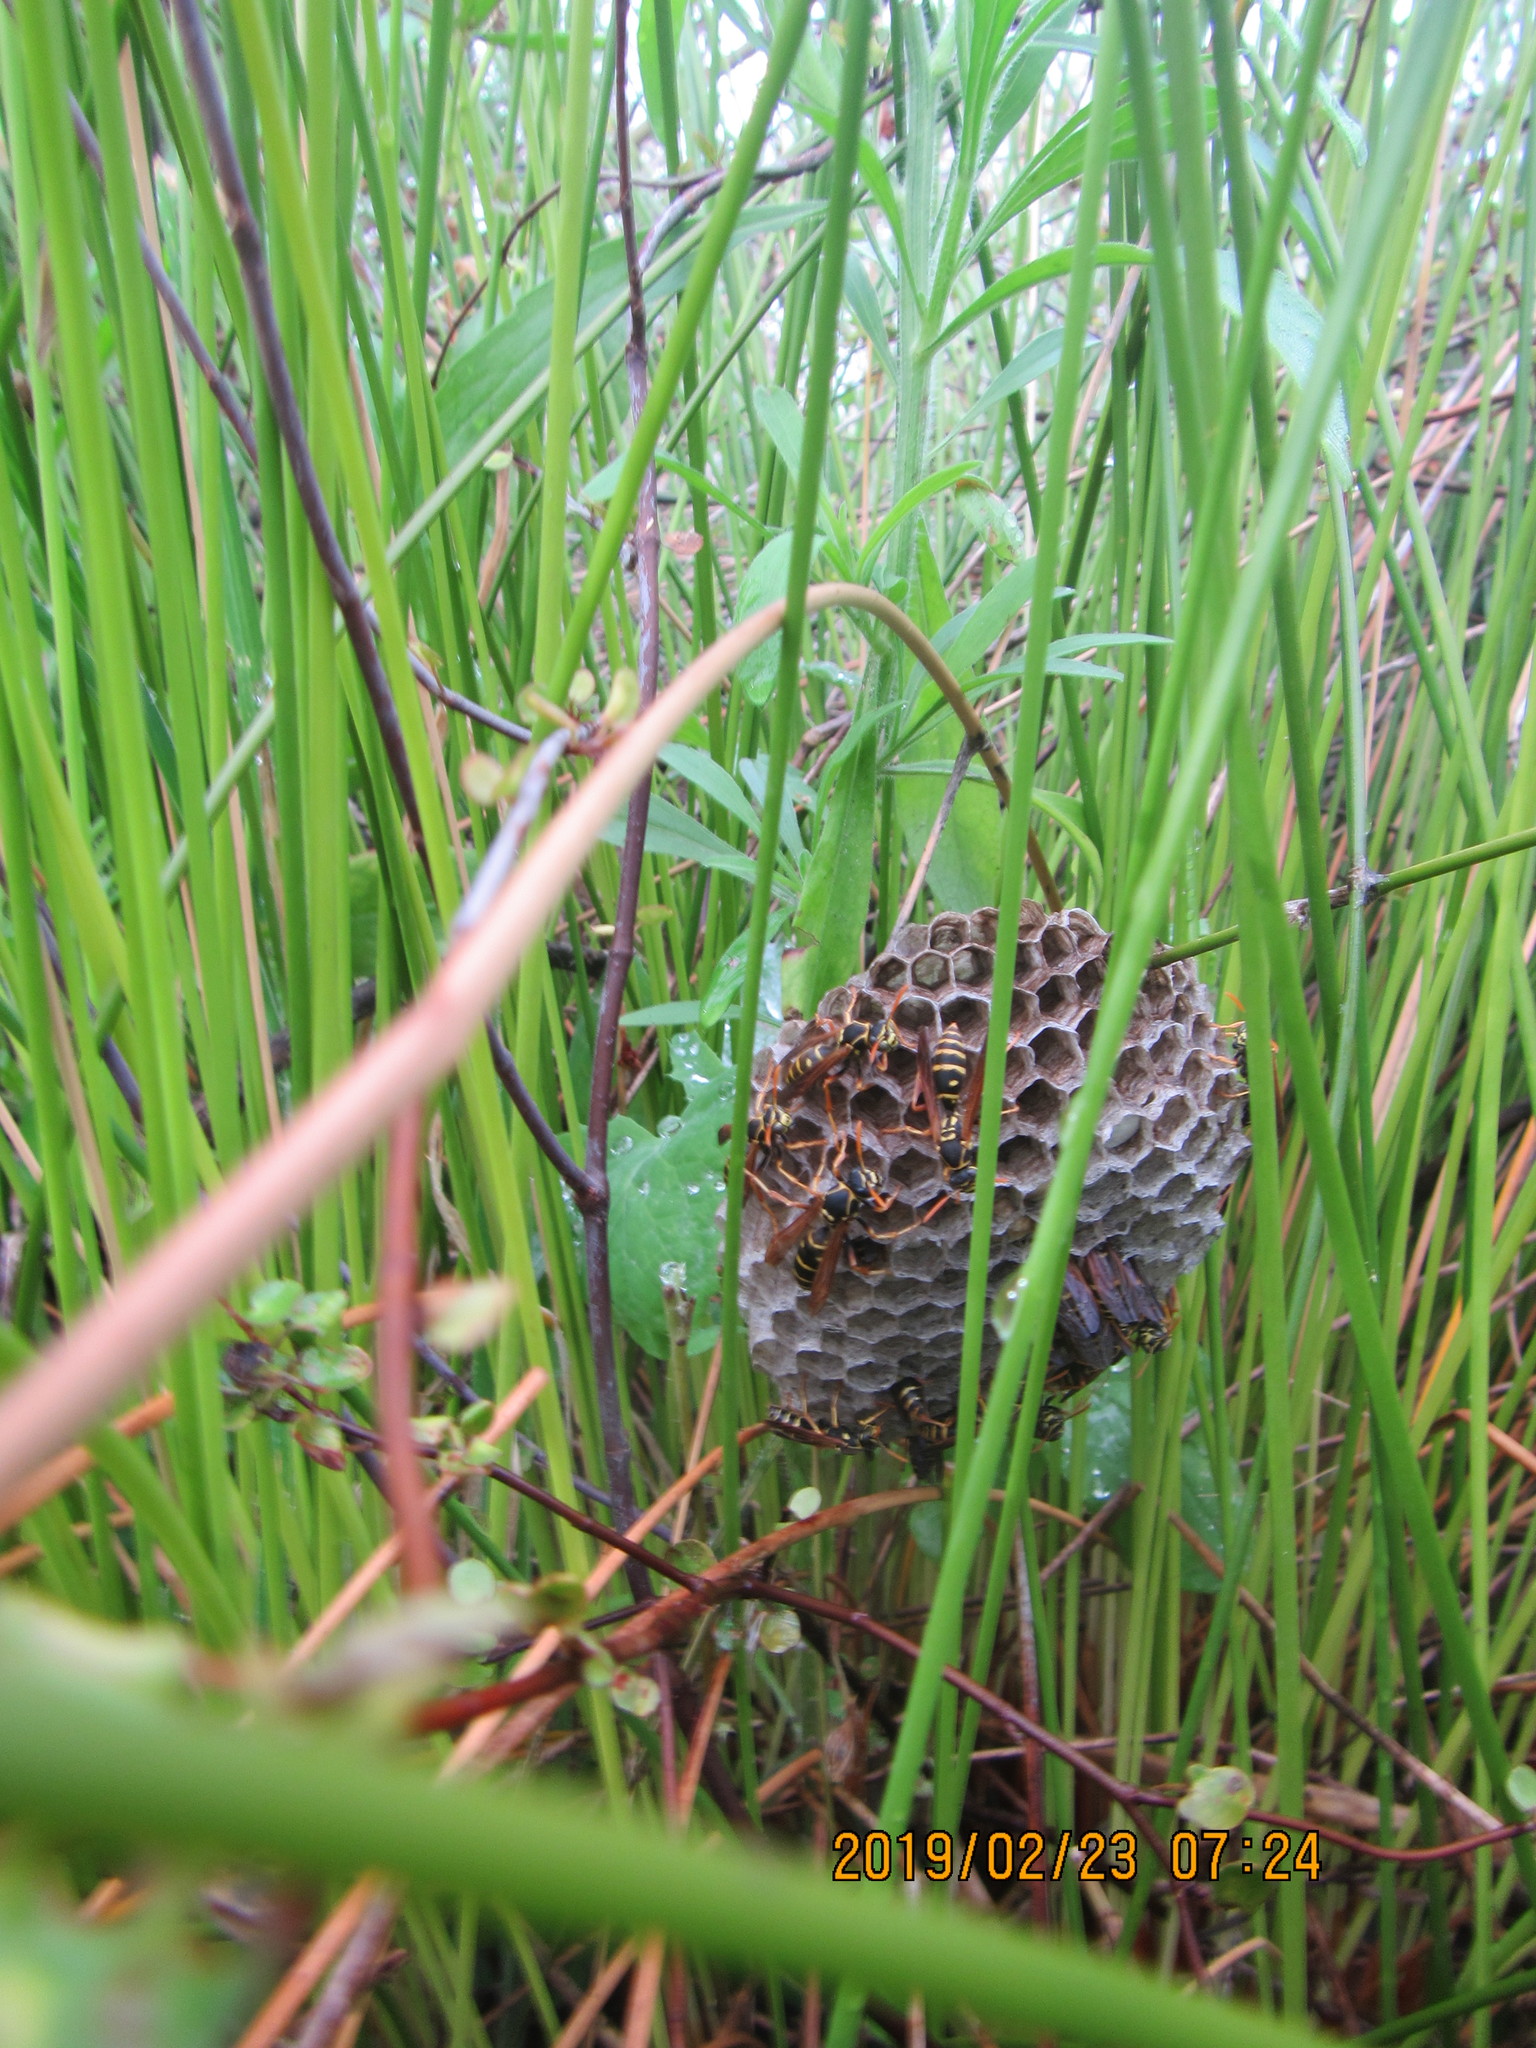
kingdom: Animalia
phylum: Arthropoda
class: Insecta
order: Hymenoptera
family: Eumenidae
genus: Polistes
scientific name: Polistes chinensis
